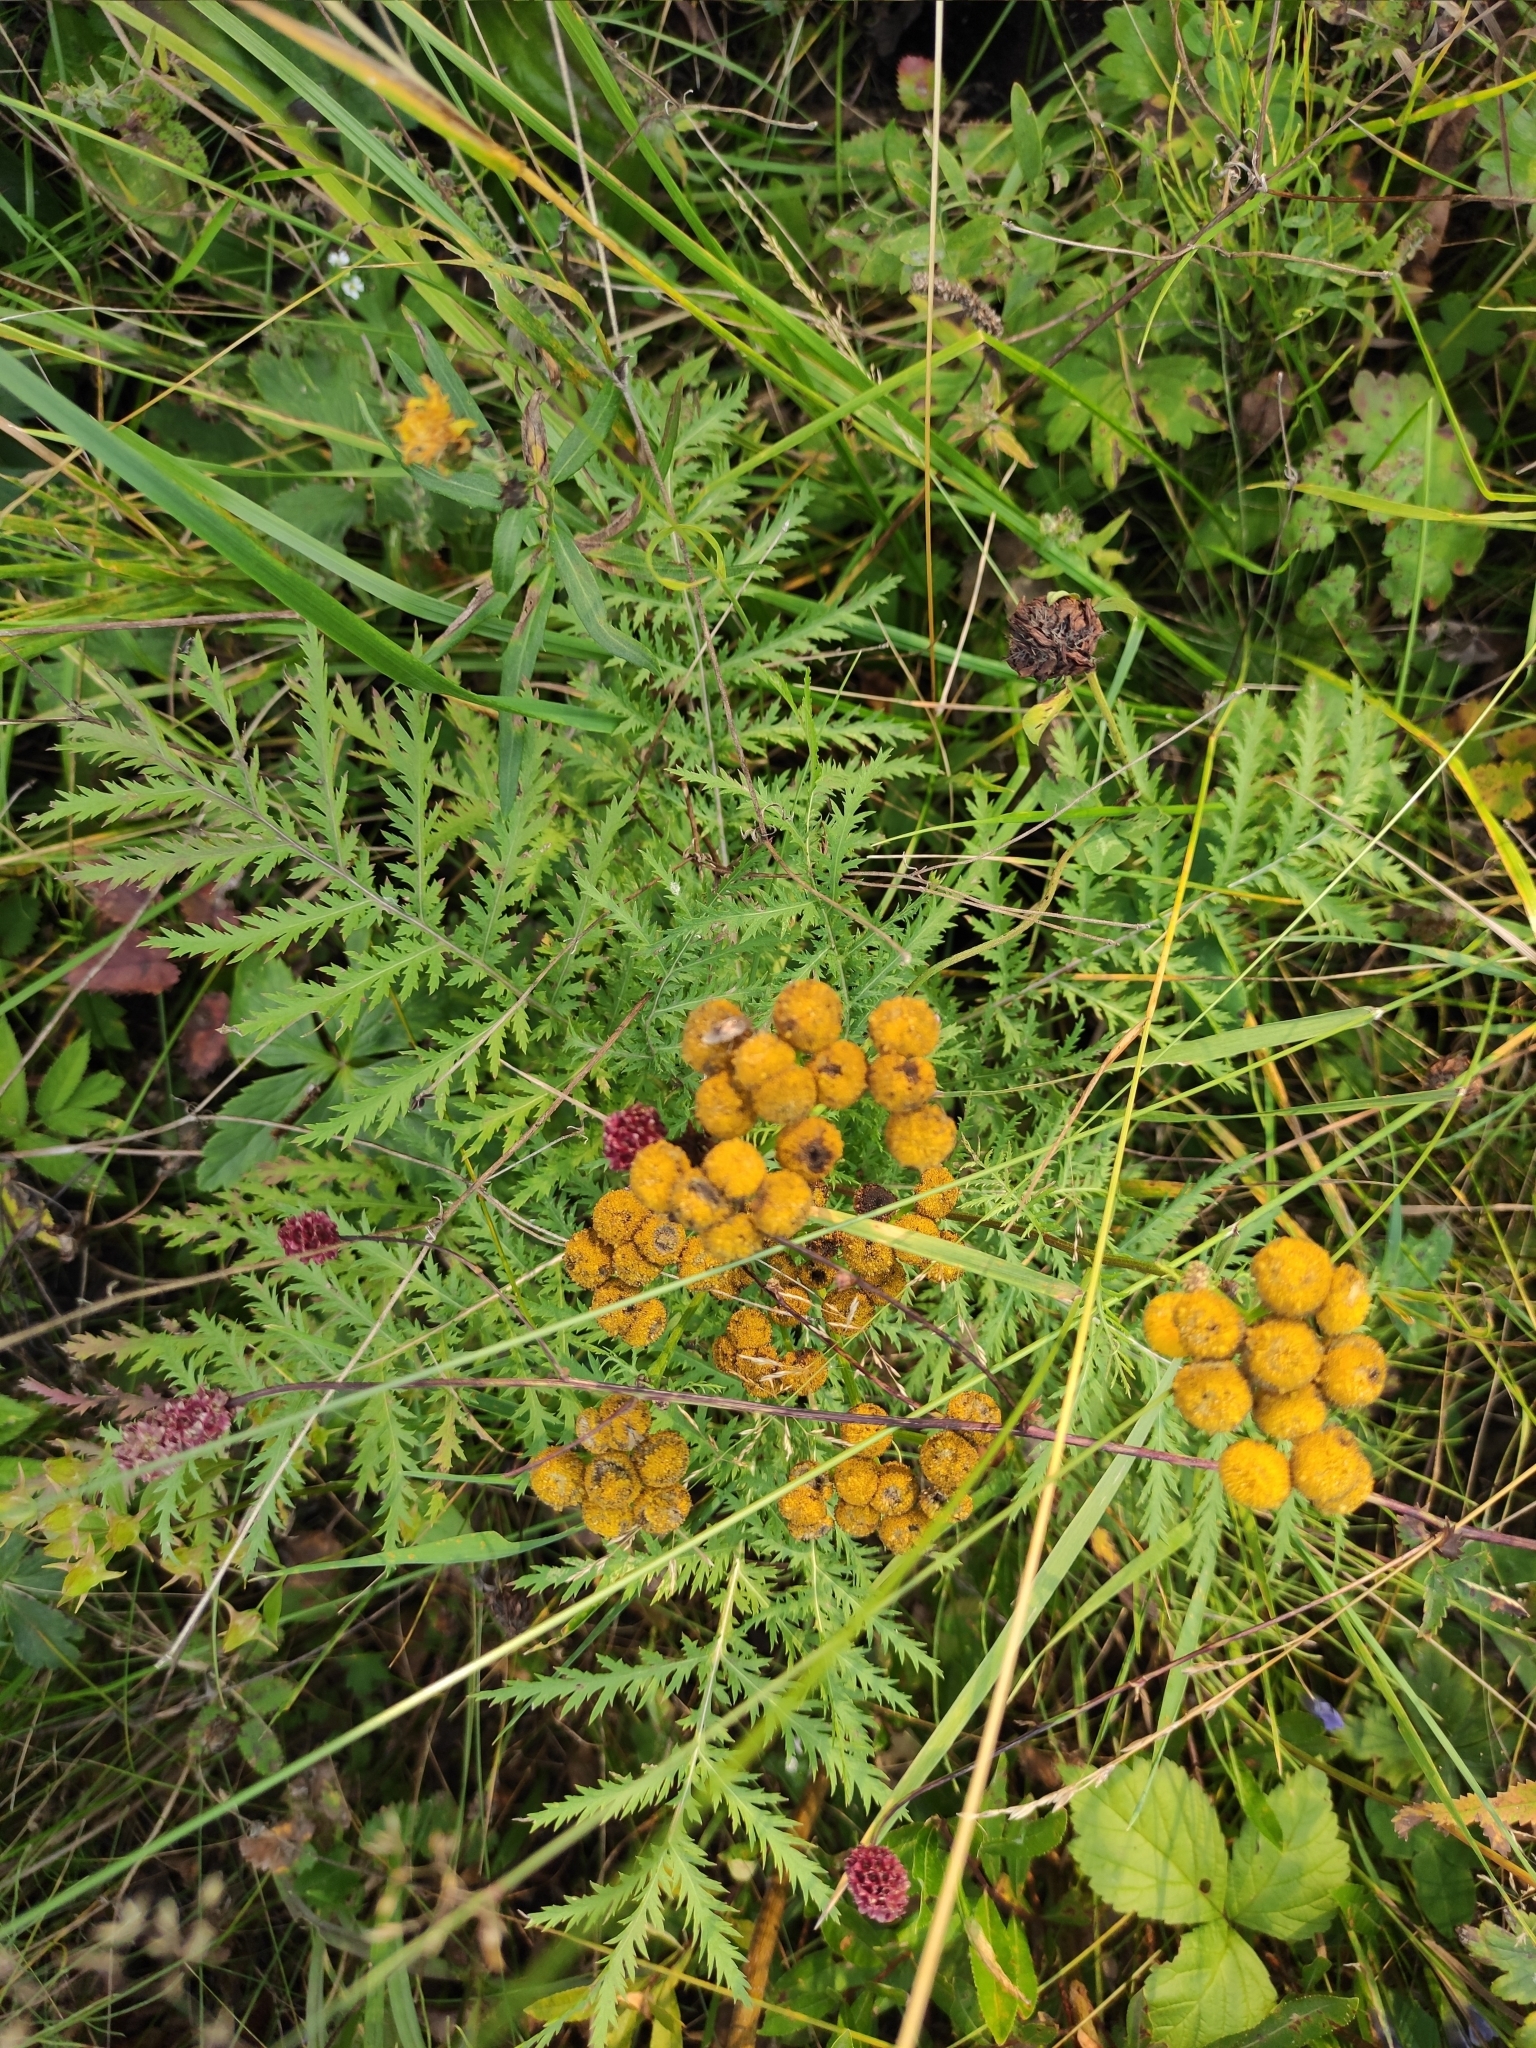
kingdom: Plantae
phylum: Tracheophyta
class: Magnoliopsida
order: Asterales
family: Asteraceae
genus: Tanacetum
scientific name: Tanacetum vulgare
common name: Common tansy
